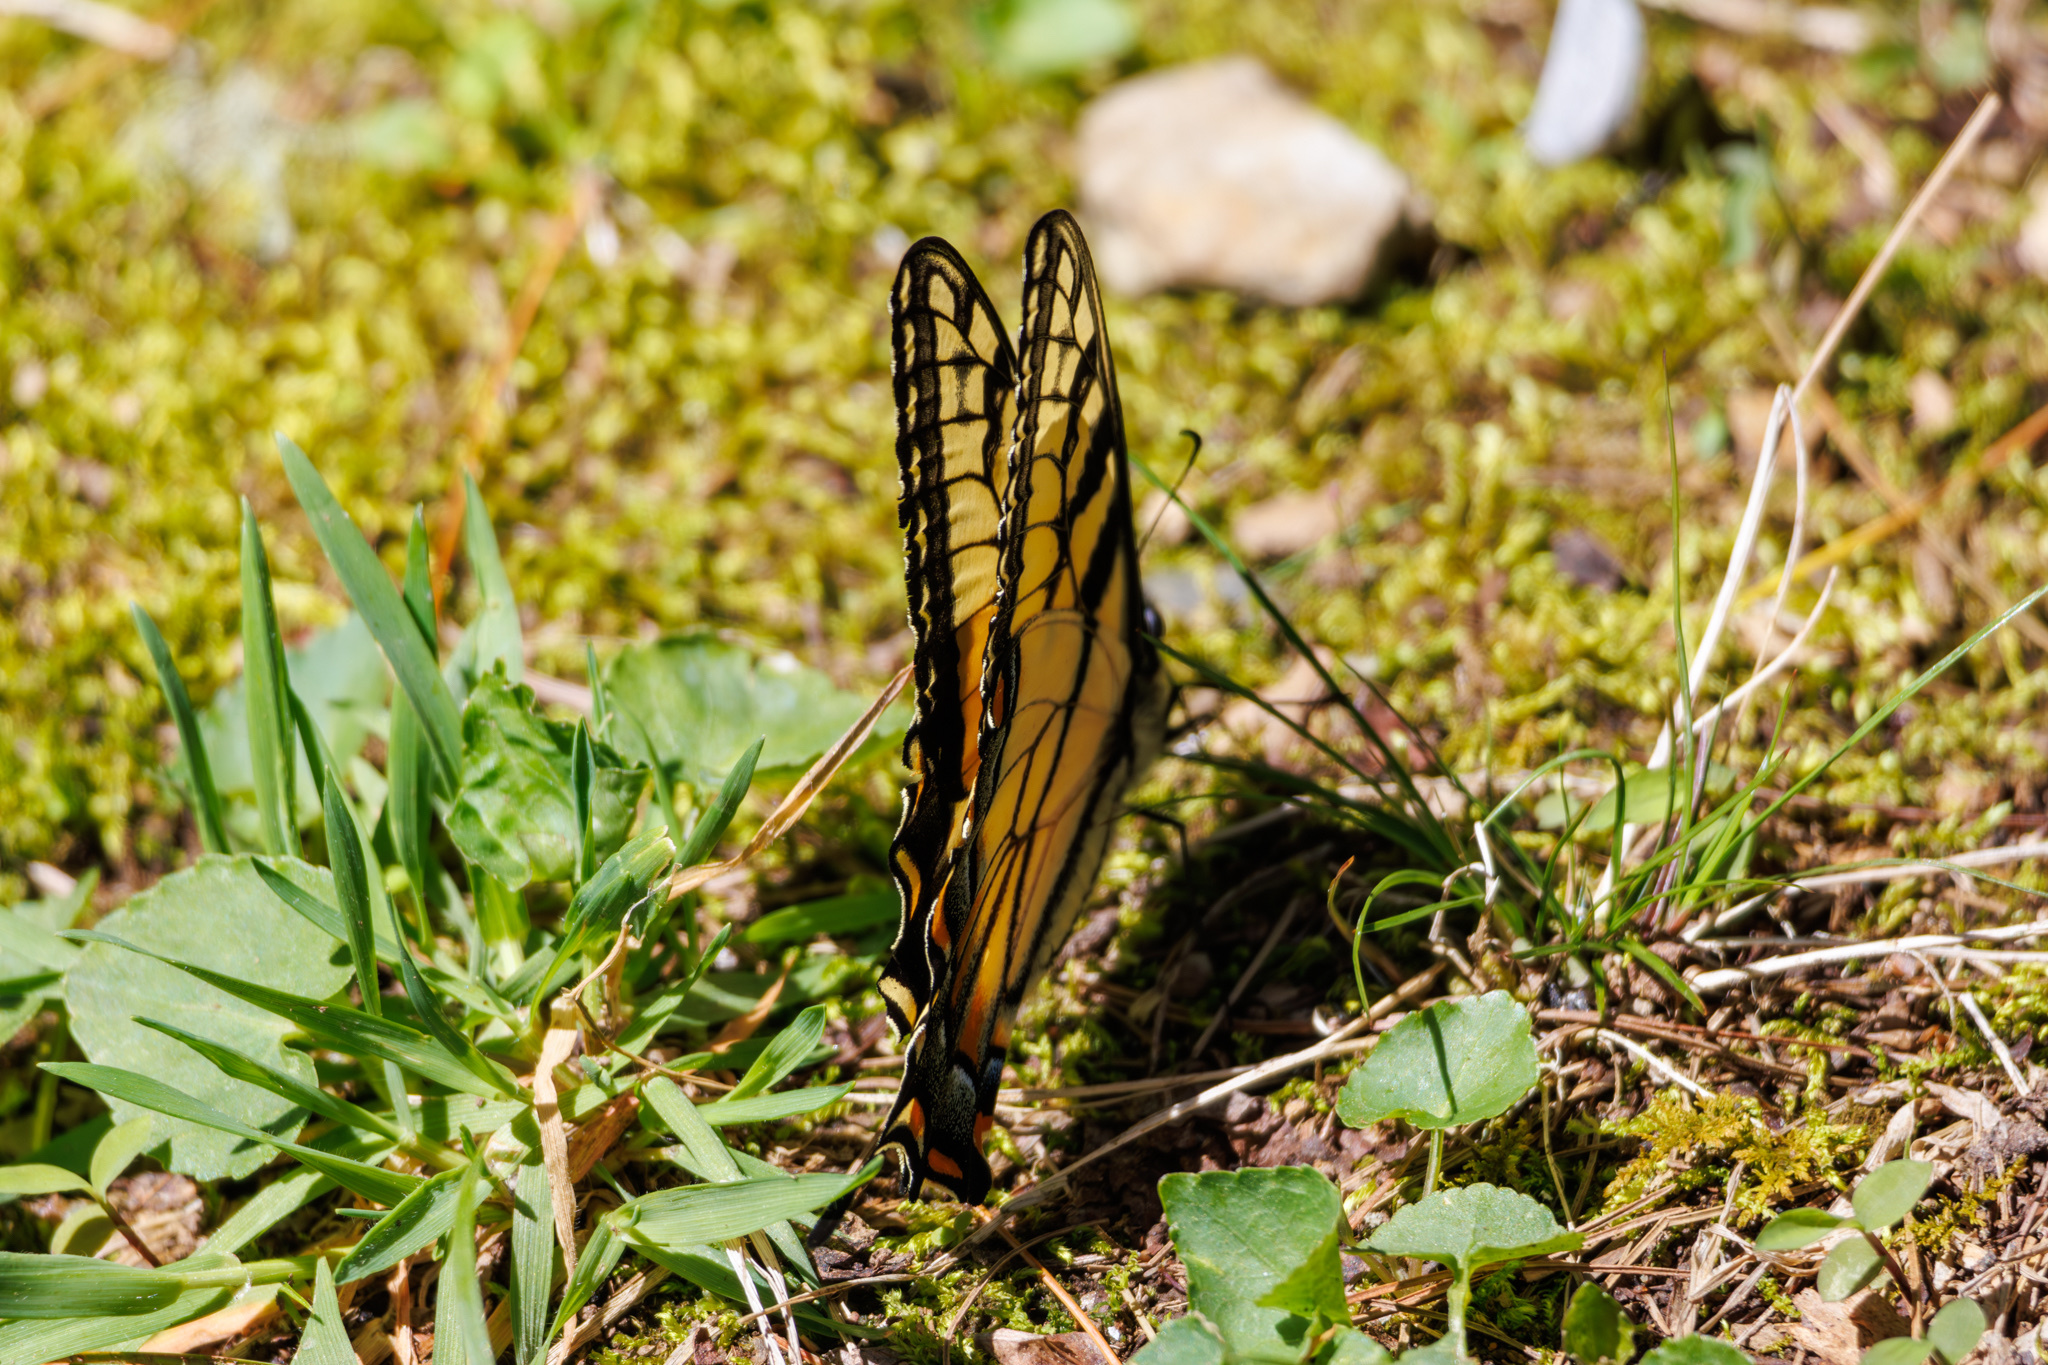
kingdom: Animalia
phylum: Arthropoda
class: Insecta
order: Lepidoptera
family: Papilionidae
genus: Papilio
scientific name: Papilio glaucus
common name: Tiger swallowtail
